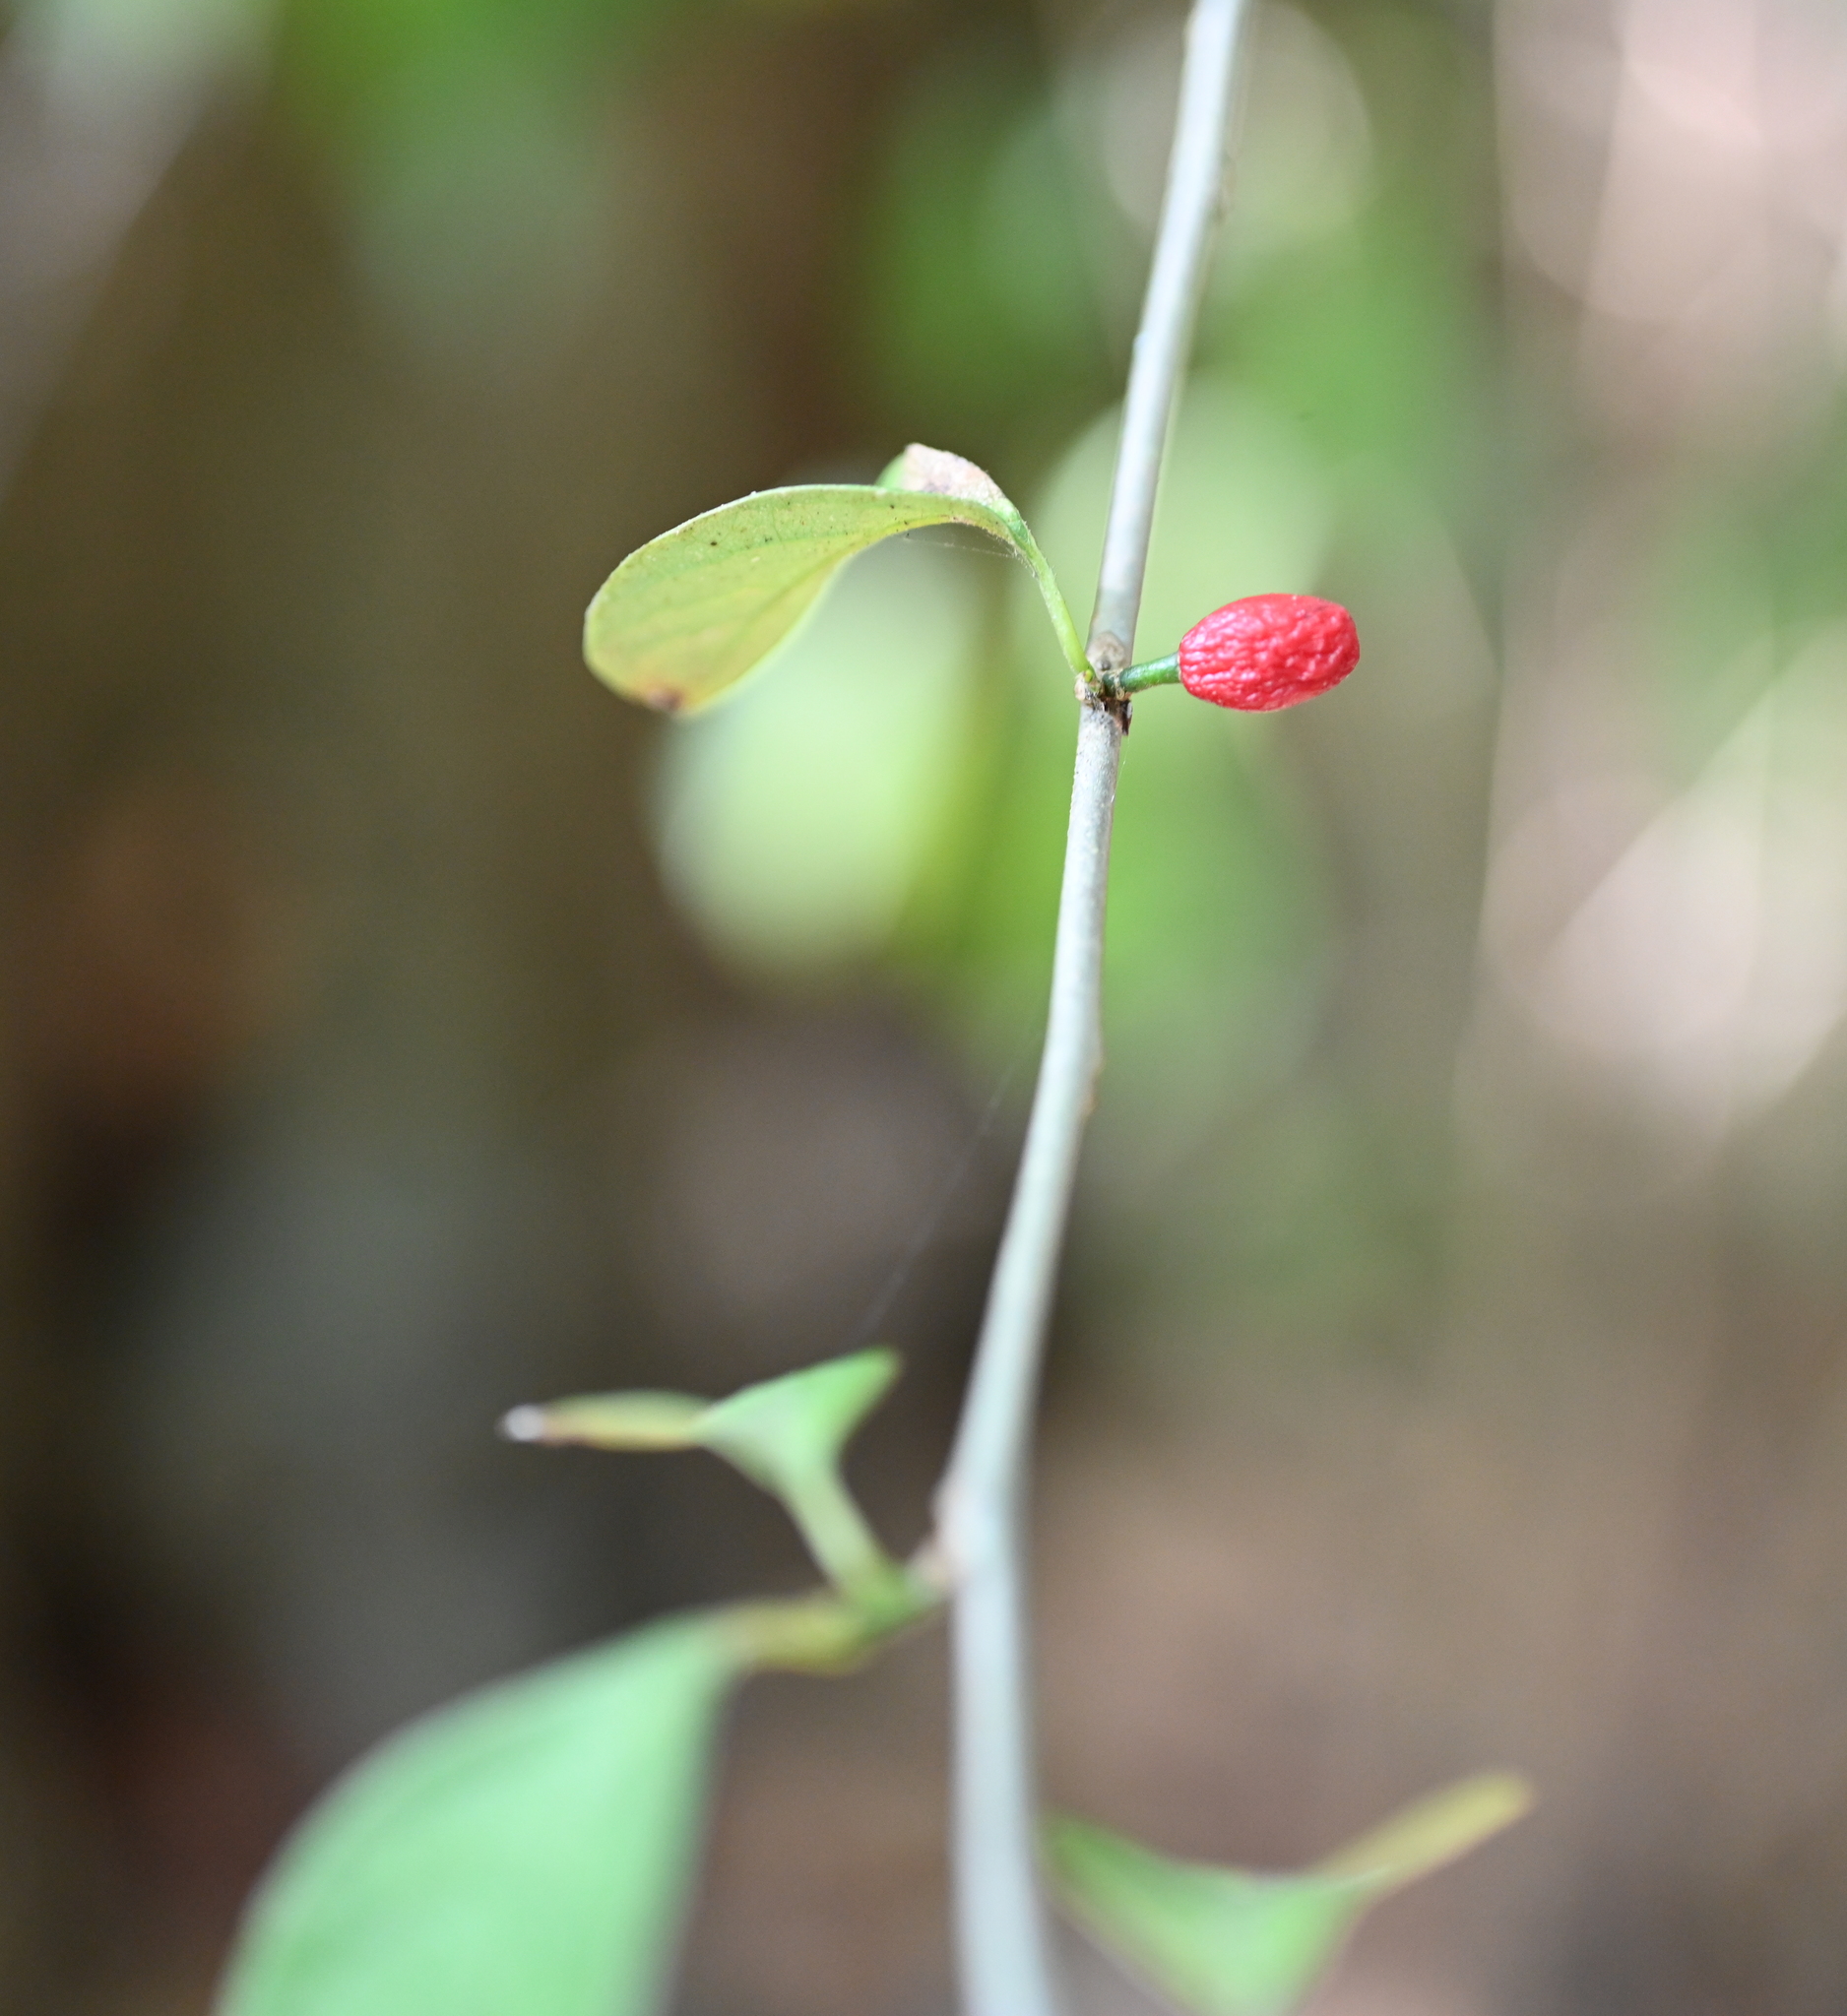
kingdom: Plantae
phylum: Tracheophyta
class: Magnoliopsida
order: Laurales
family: Lauraceae
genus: Lindera
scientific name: Lindera benzoin
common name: Spicebush
